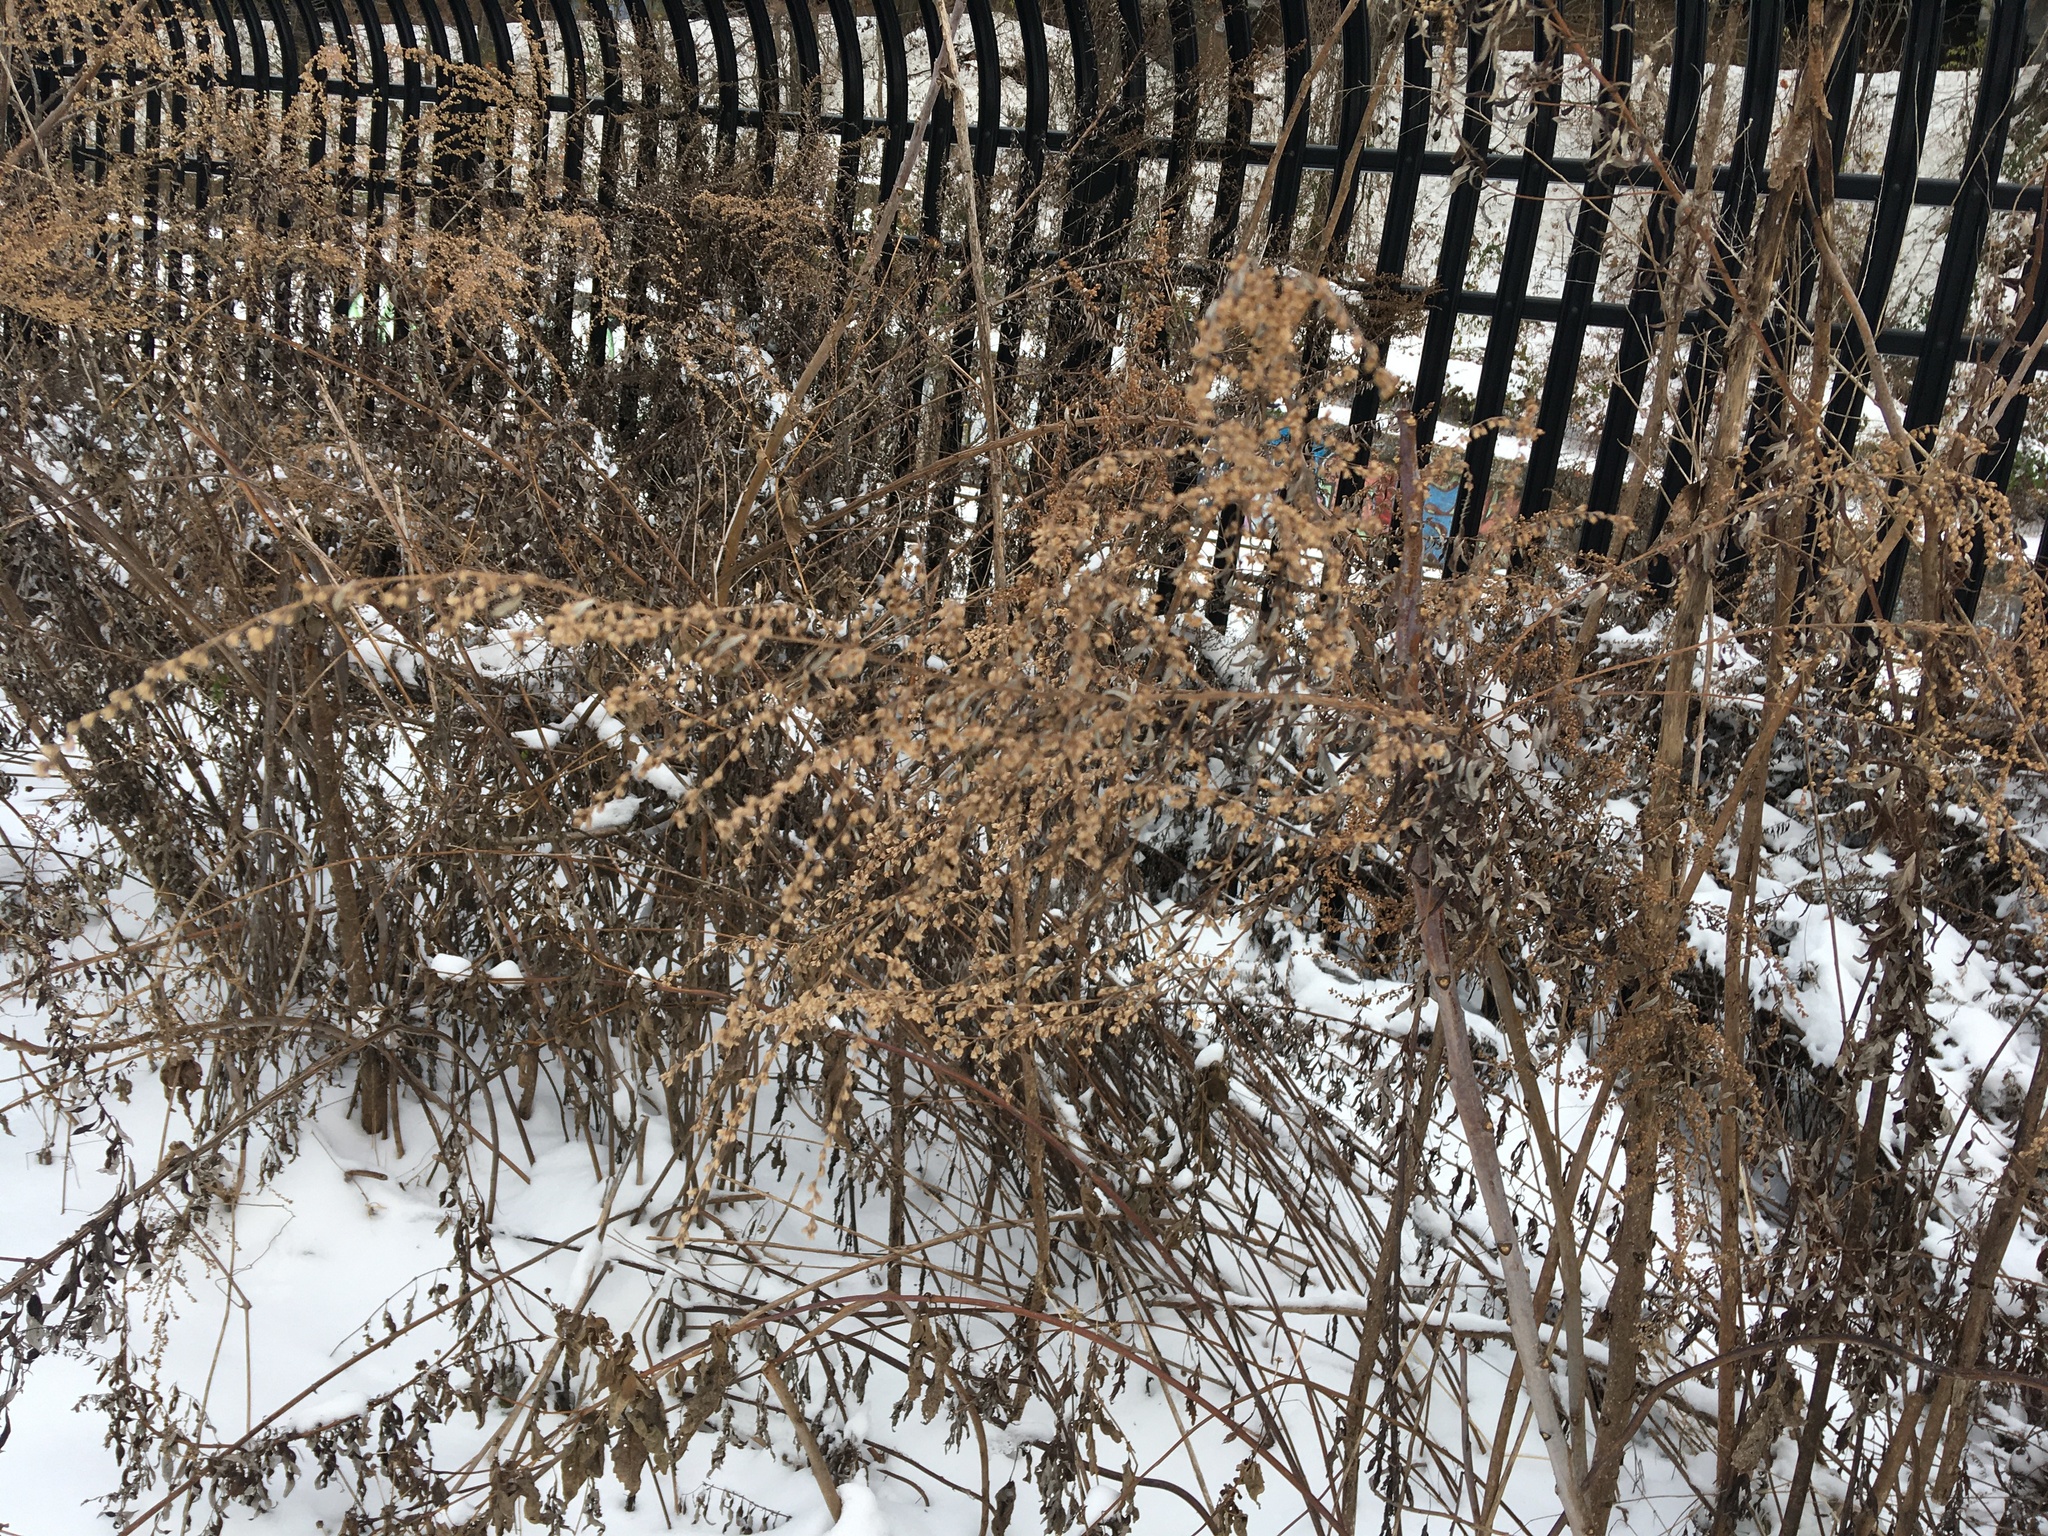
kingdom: Plantae
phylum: Tracheophyta
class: Magnoliopsida
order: Asterales
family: Asteraceae
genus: Artemisia
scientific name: Artemisia vulgaris
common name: Mugwort
